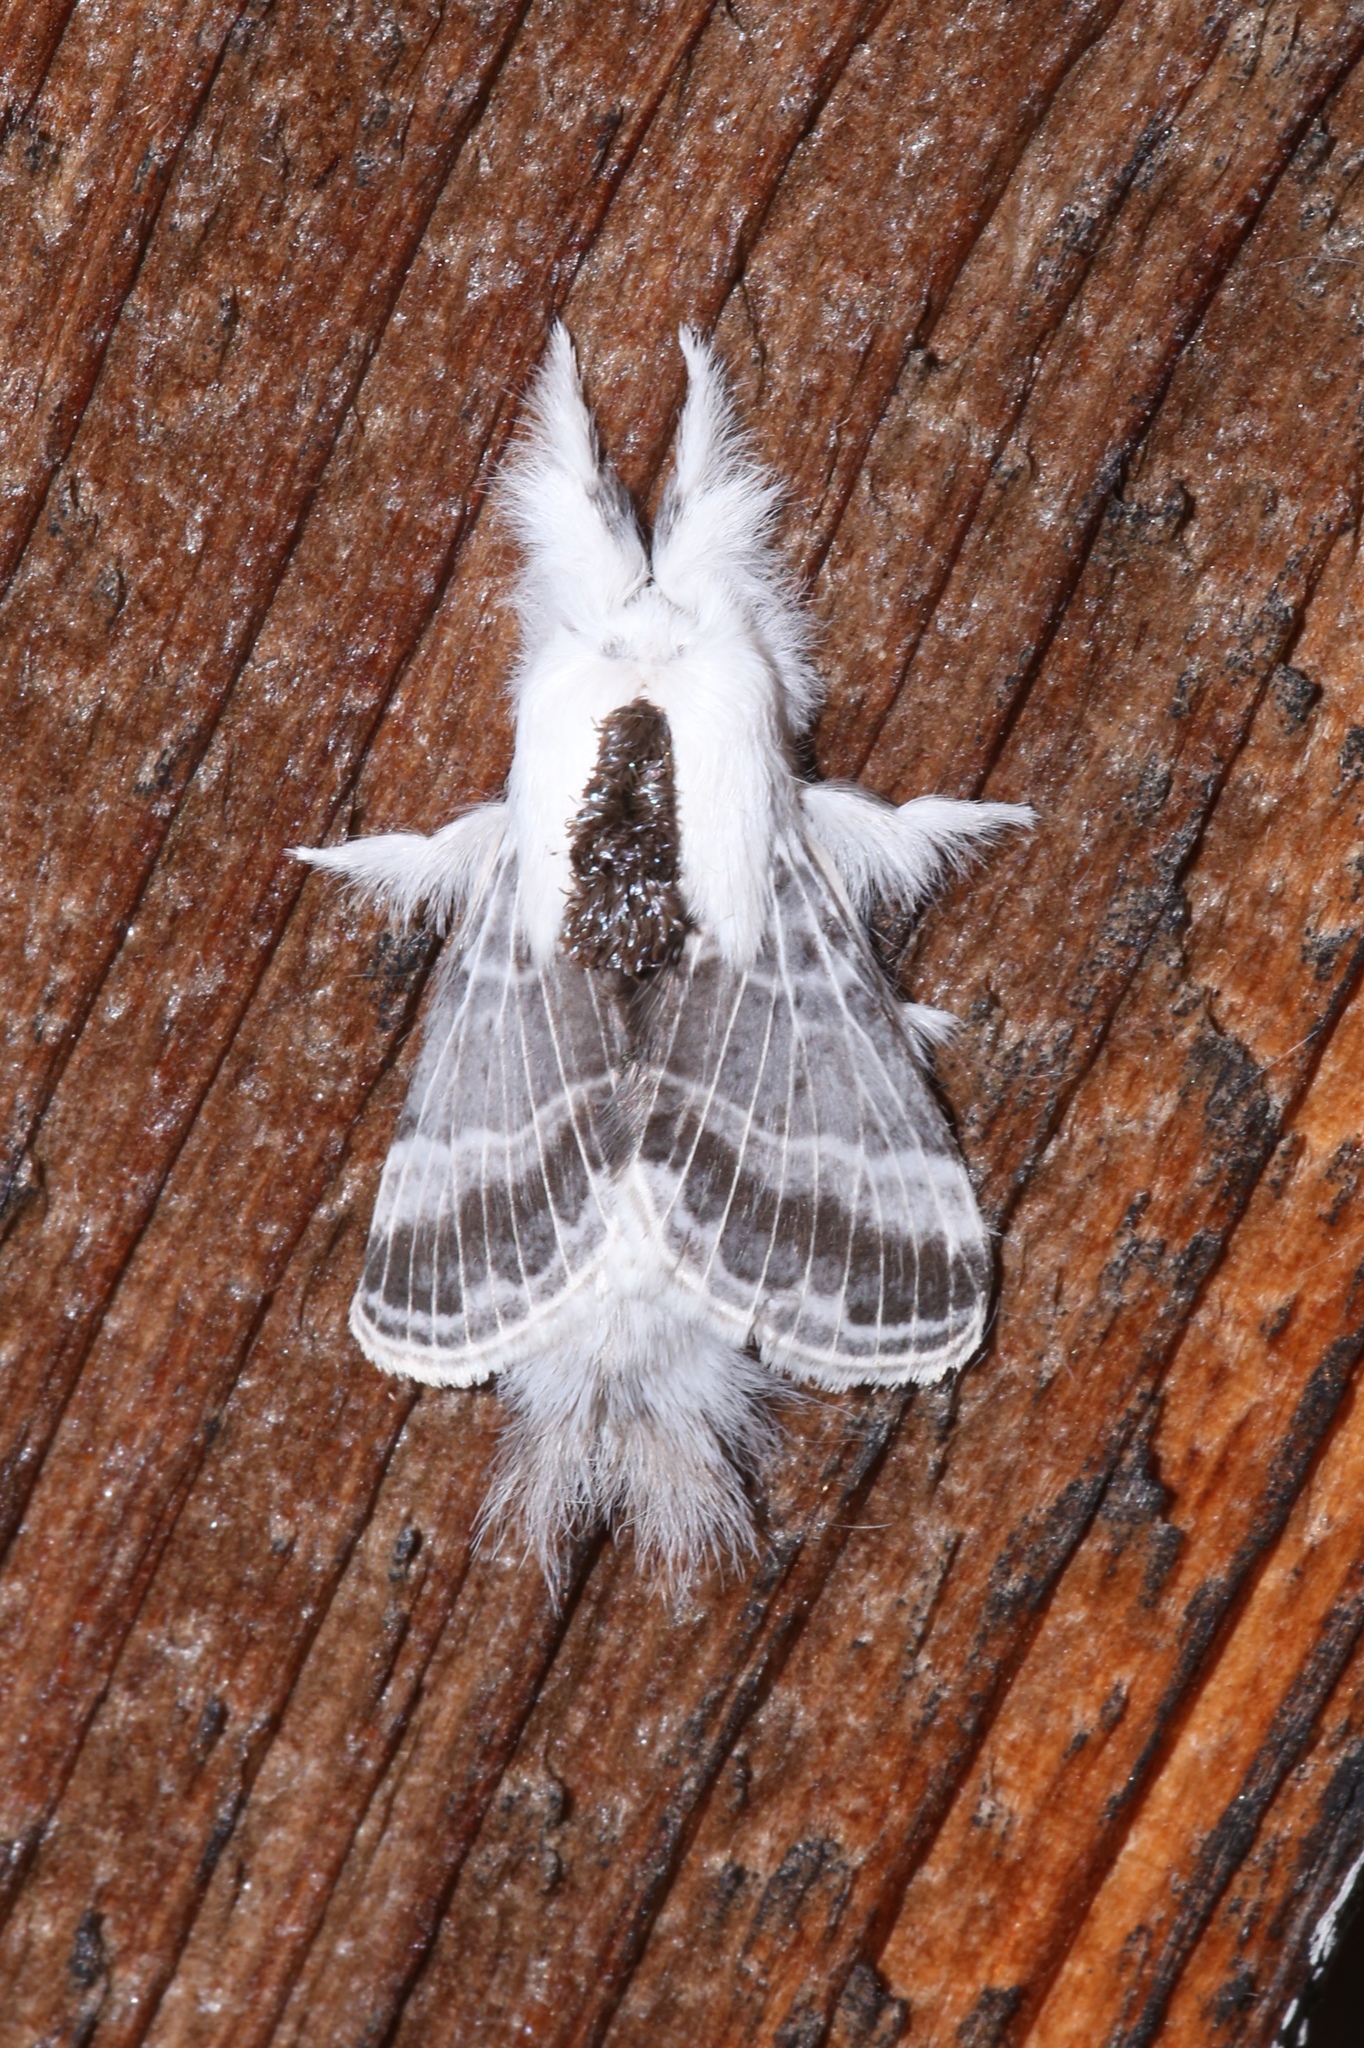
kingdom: Animalia
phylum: Arthropoda
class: Insecta
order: Lepidoptera
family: Lasiocampidae
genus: Tolype
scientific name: Tolype velleda
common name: Large tolype moth
